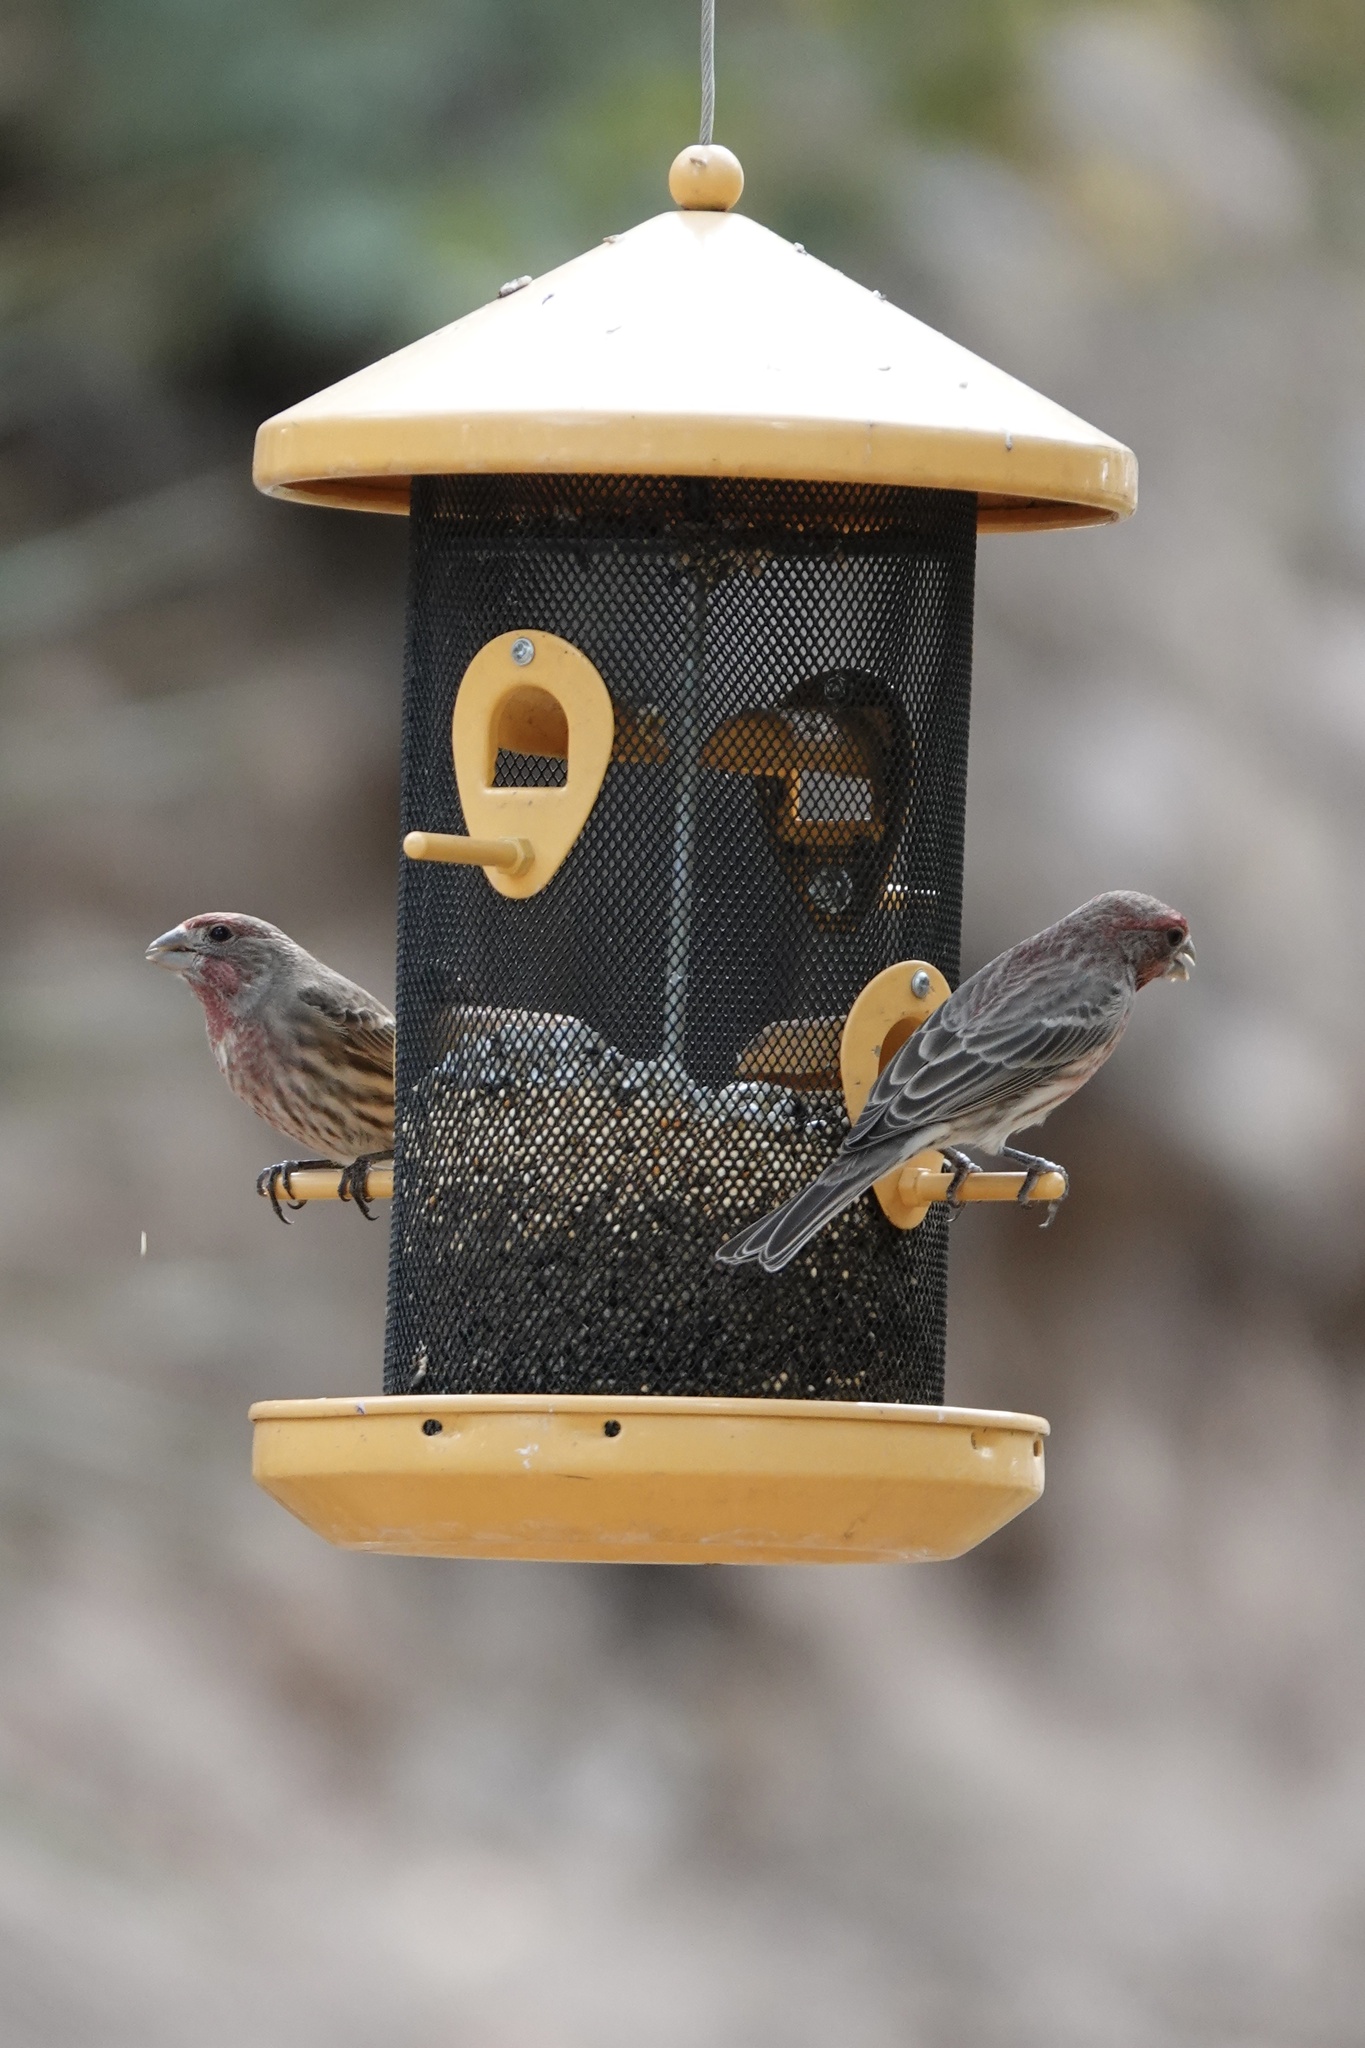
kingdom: Animalia
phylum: Chordata
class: Aves
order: Passeriformes
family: Fringillidae
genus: Haemorhous
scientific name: Haemorhous mexicanus
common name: House finch
